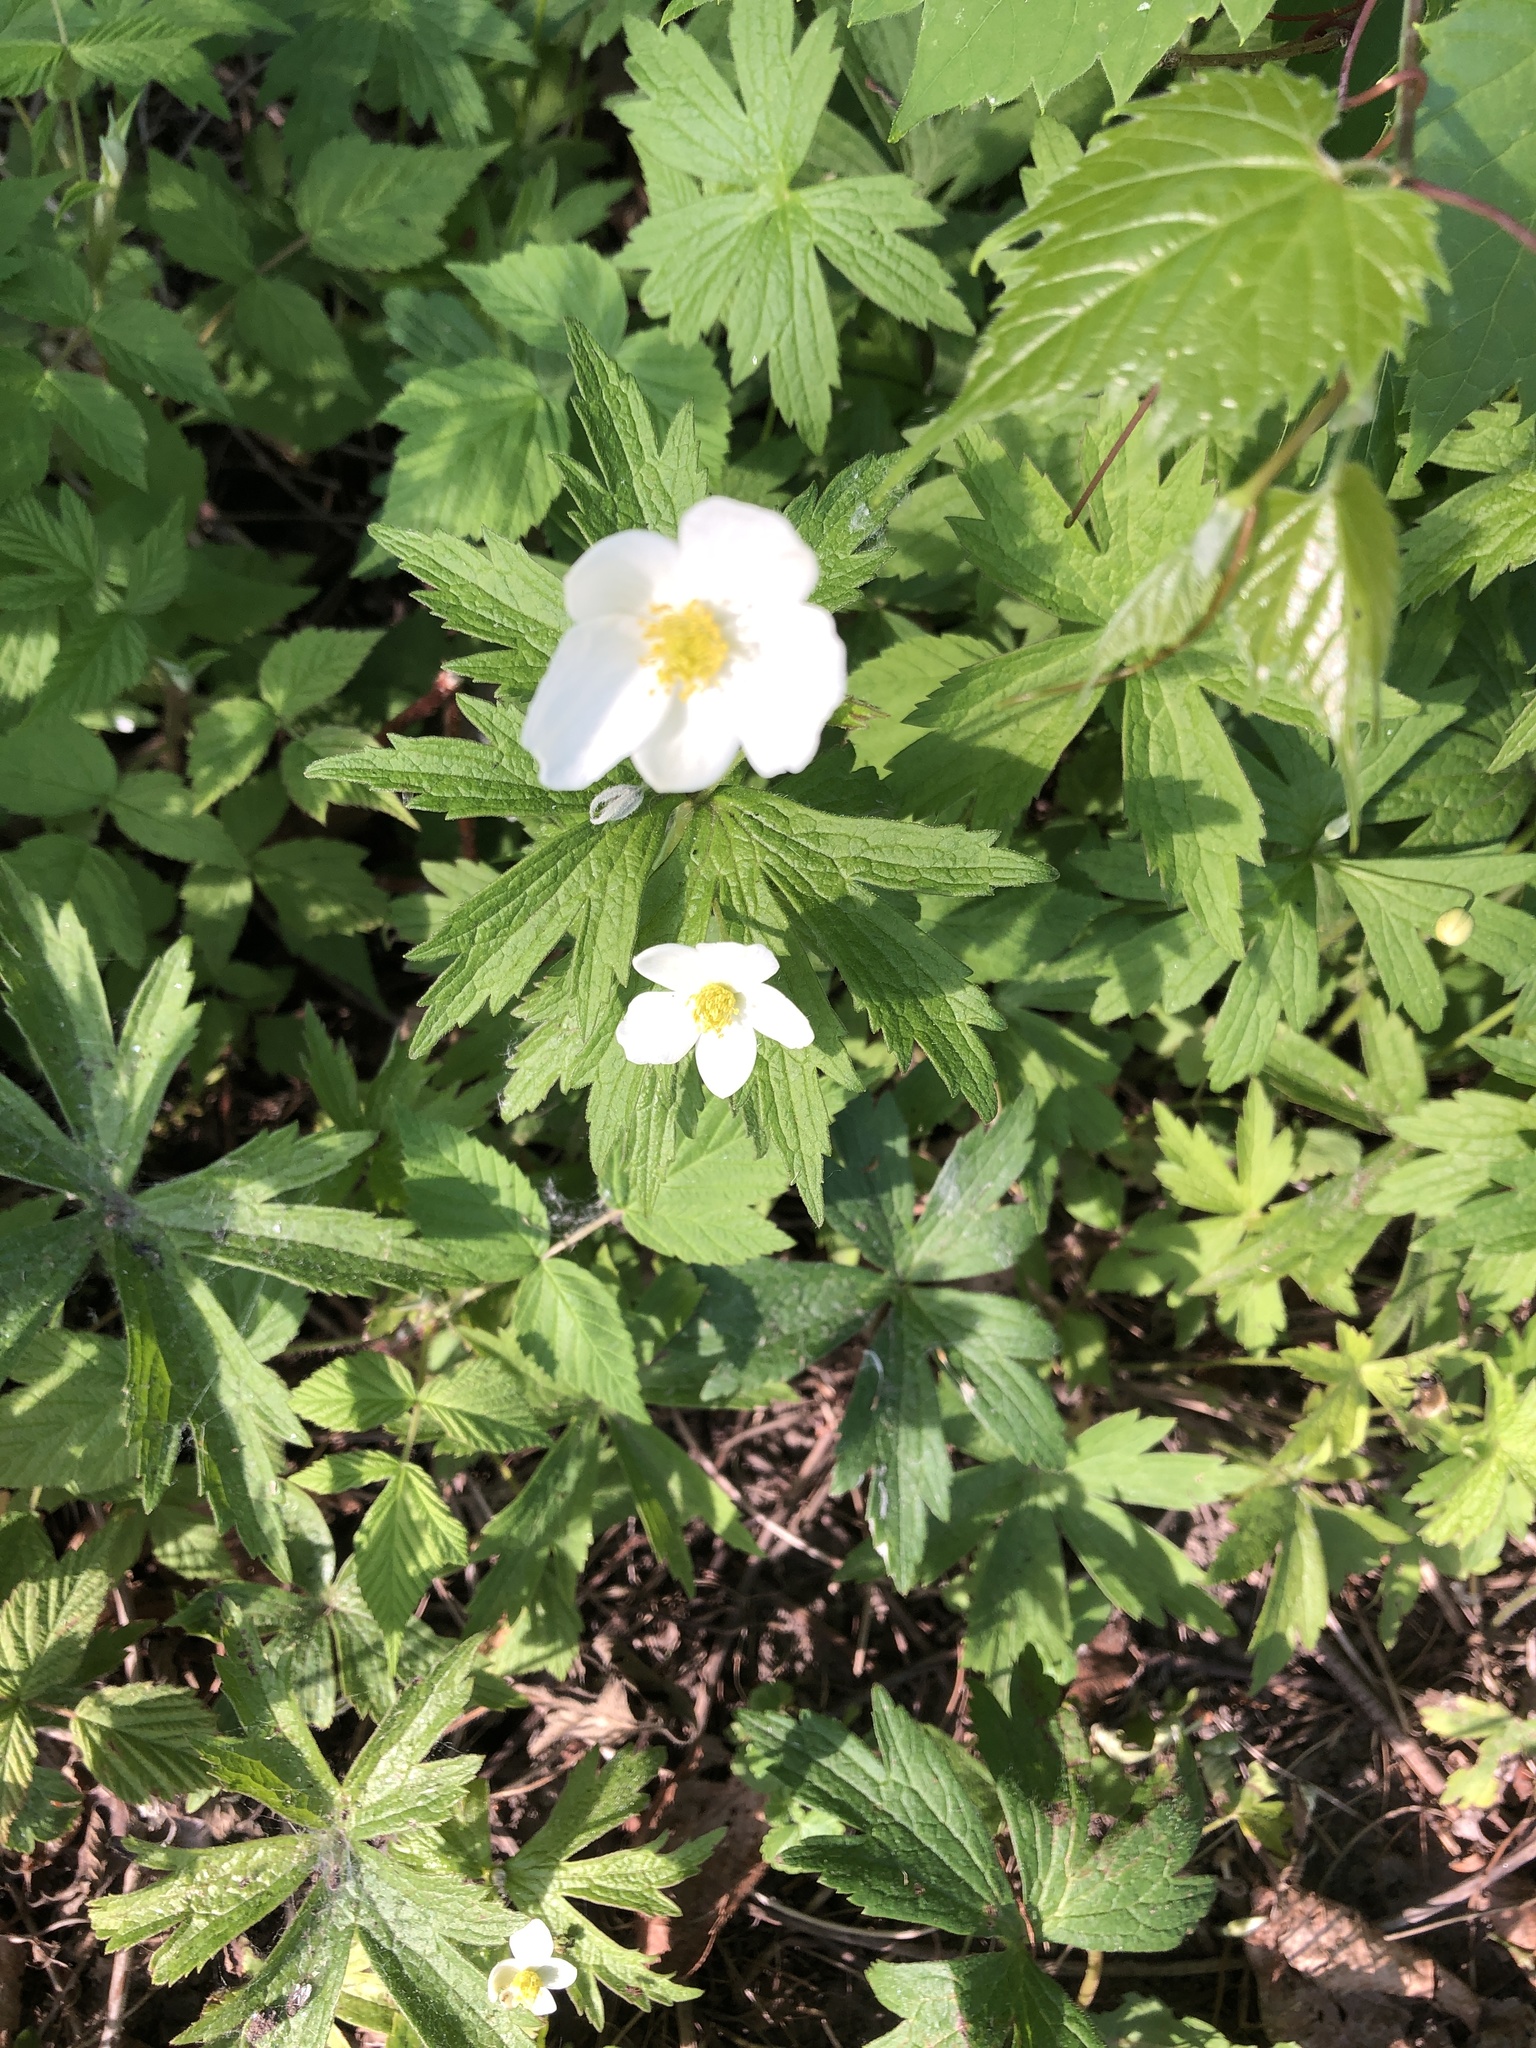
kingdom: Plantae
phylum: Tracheophyta
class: Magnoliopsida
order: Ranunculales
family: Ranunculaceae
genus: Anemonastrum
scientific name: Anemonastrum canadense
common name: Canada anemone
